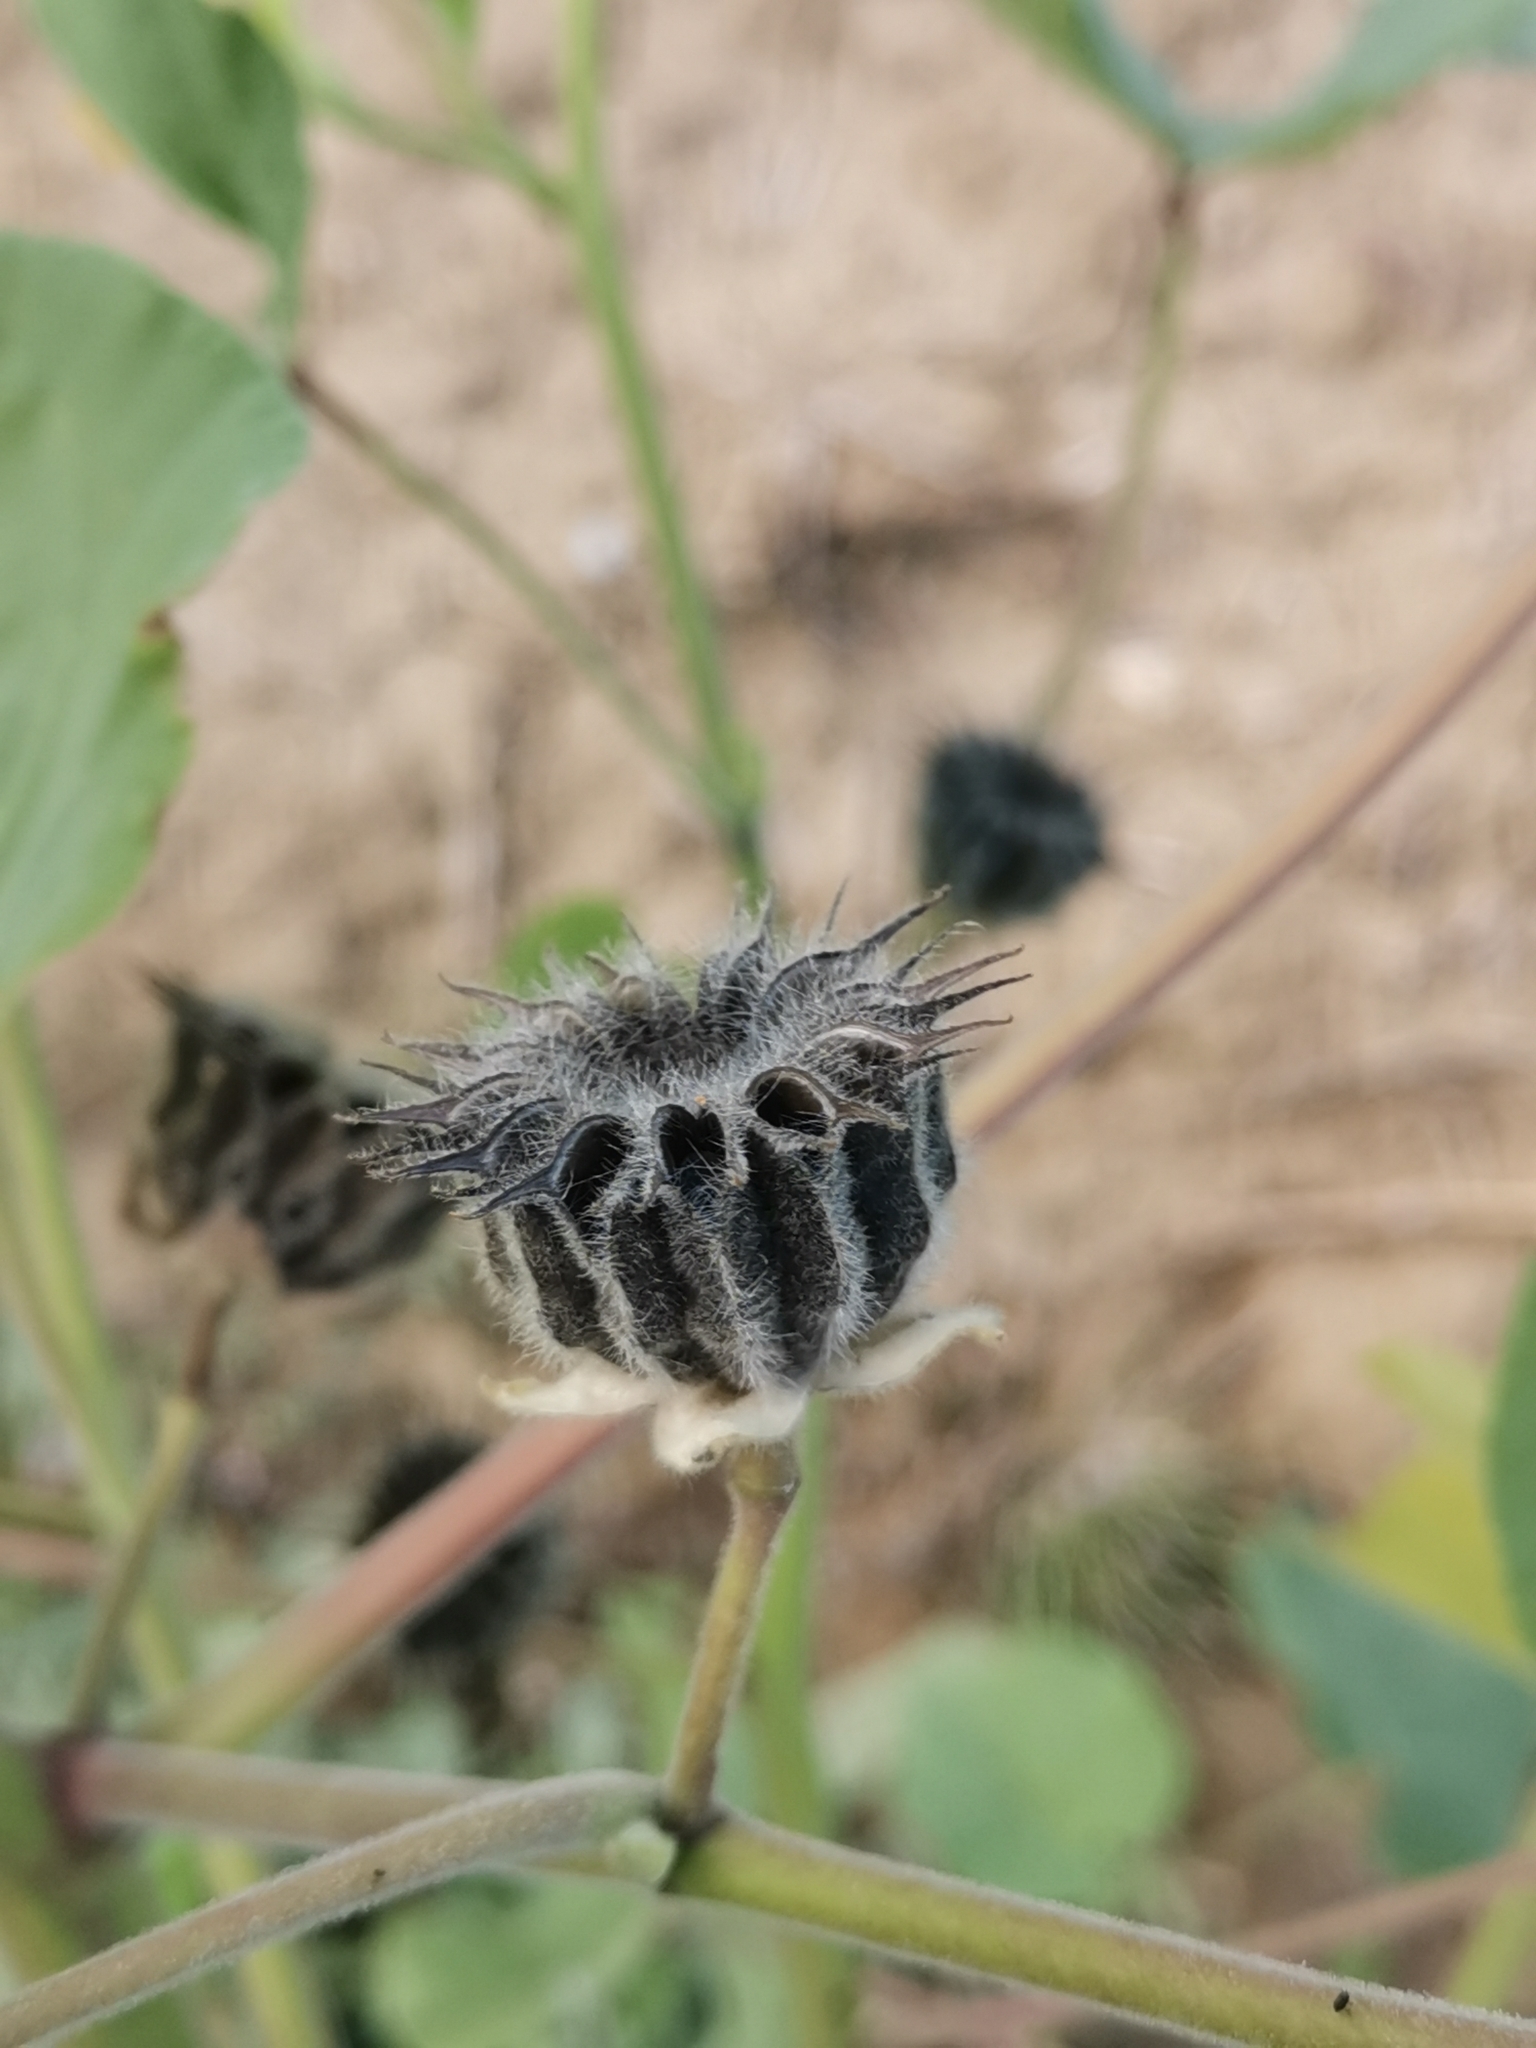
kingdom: Plantae
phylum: Tracheophyta
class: Magnoliopsida
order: Malvales
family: Malvaceae
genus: Abutilon
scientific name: Abutilon theophrasti
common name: Velvetleaf
